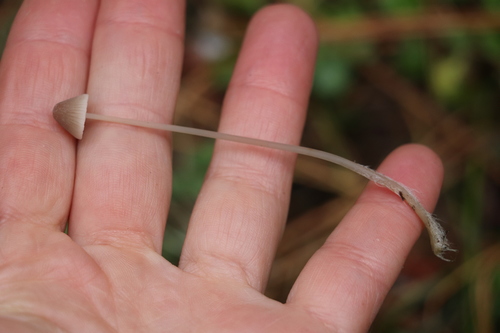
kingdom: Fungi
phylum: Basidiomycota
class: Agaricomycetes
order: Agaricales
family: Mycenaceae
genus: Mycena
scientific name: Mycena mirata
